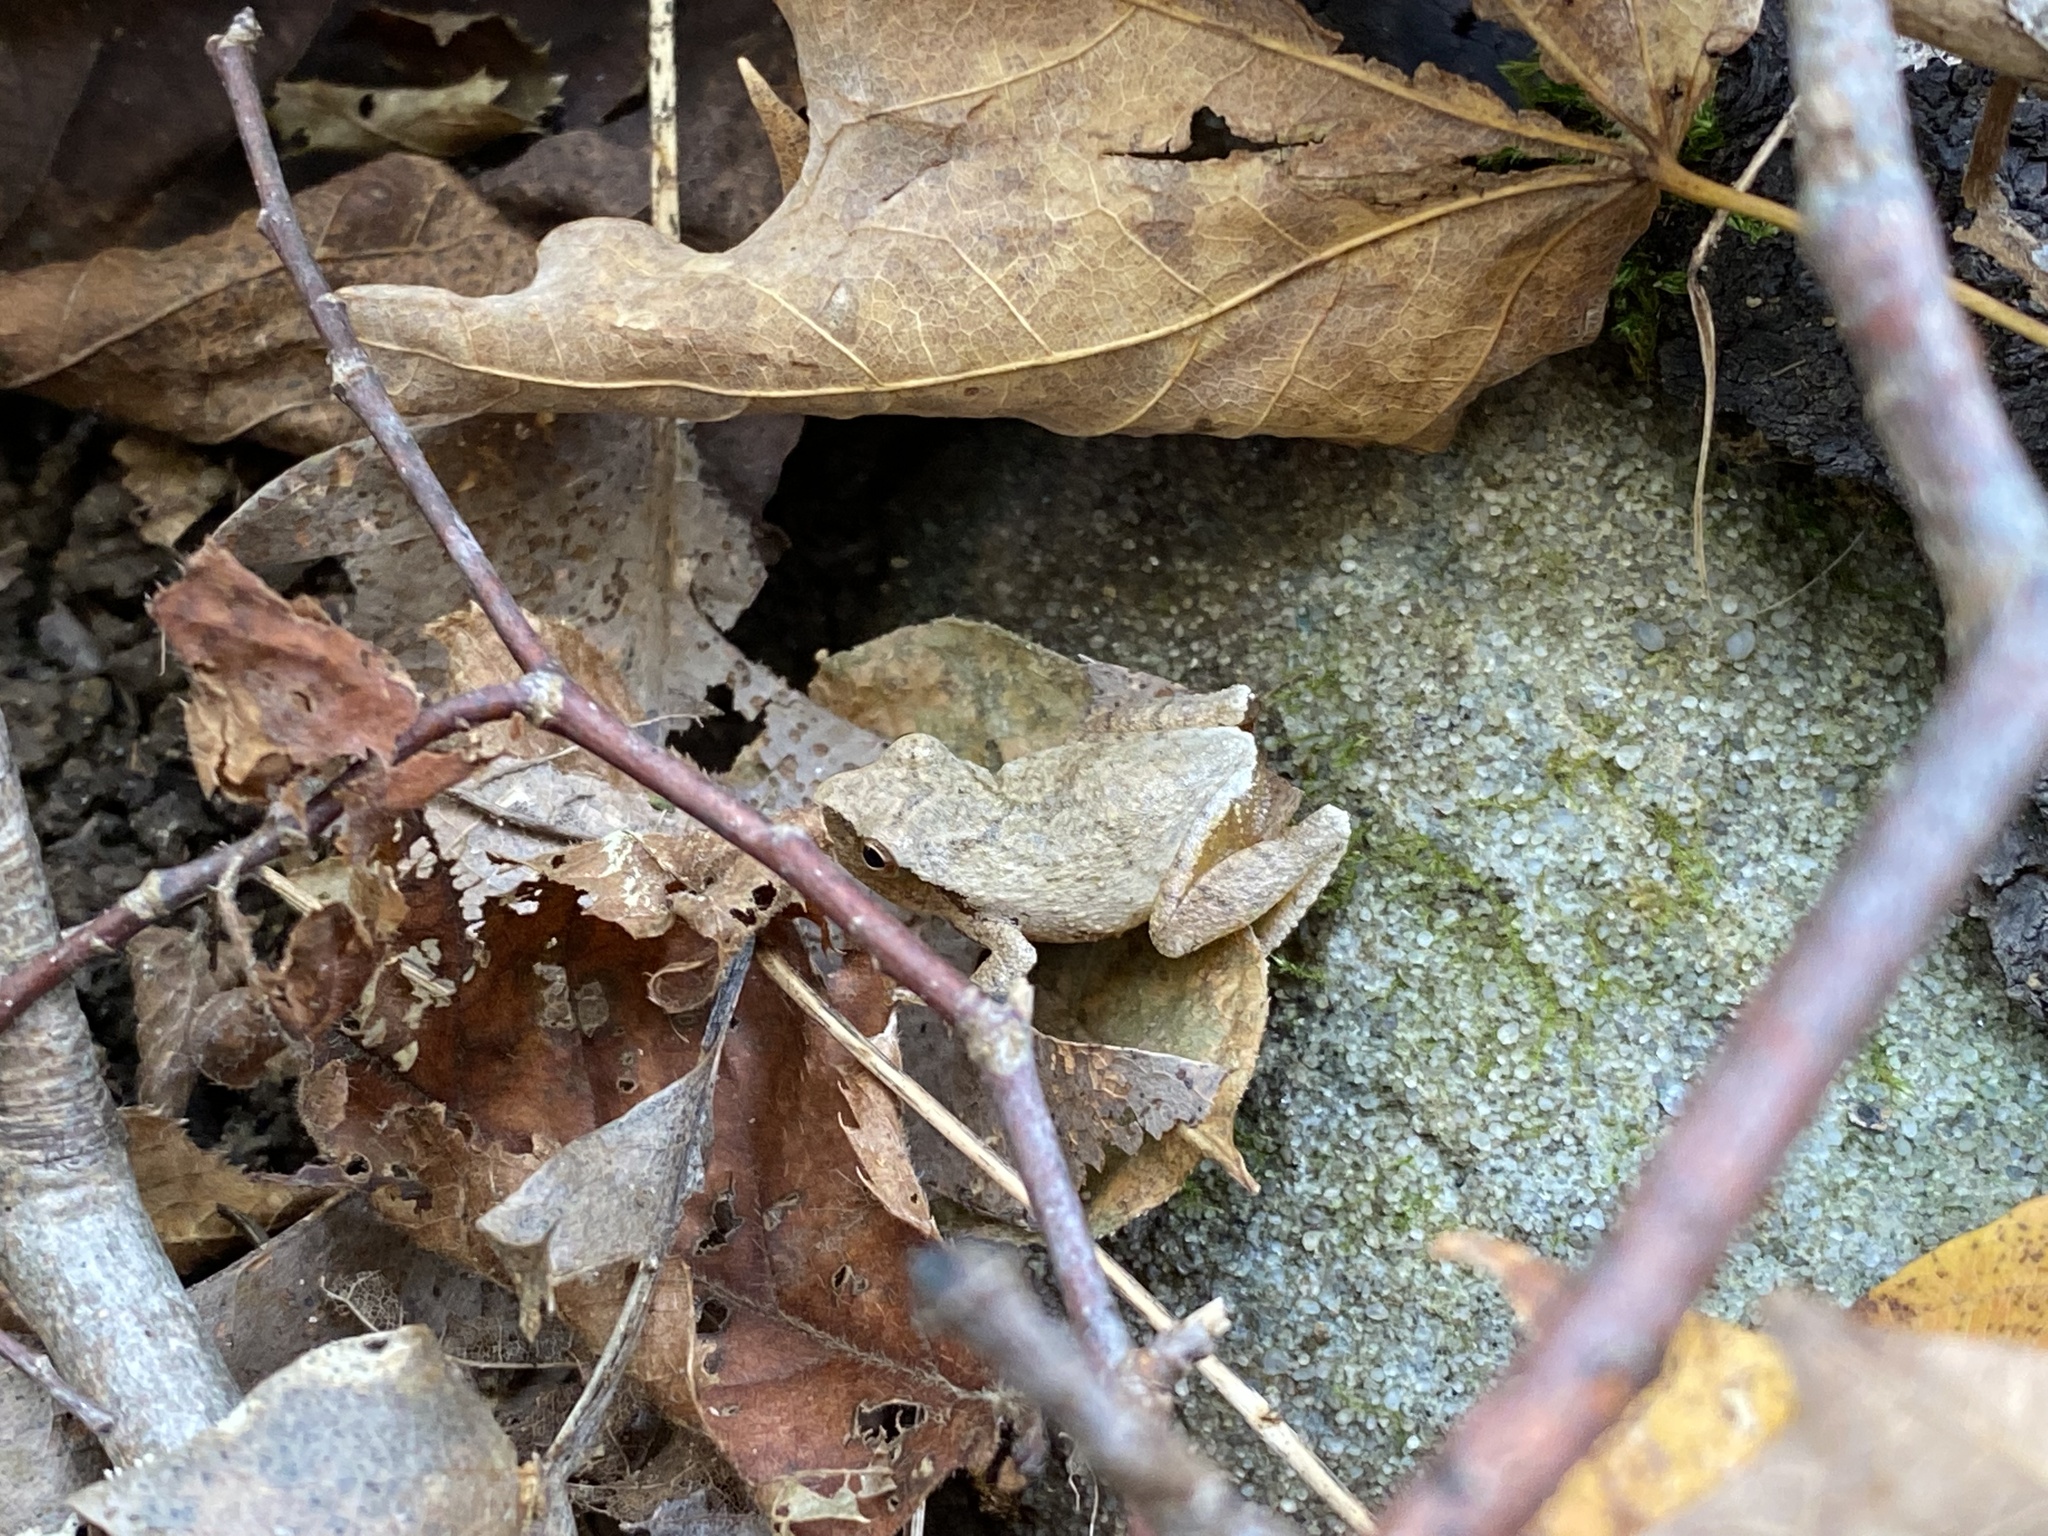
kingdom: Animalia
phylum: Chordata
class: Amphibia
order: Anura
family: Hylidae
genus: Pseudacris
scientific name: Pseudacris crucifer
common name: Spring peeper
